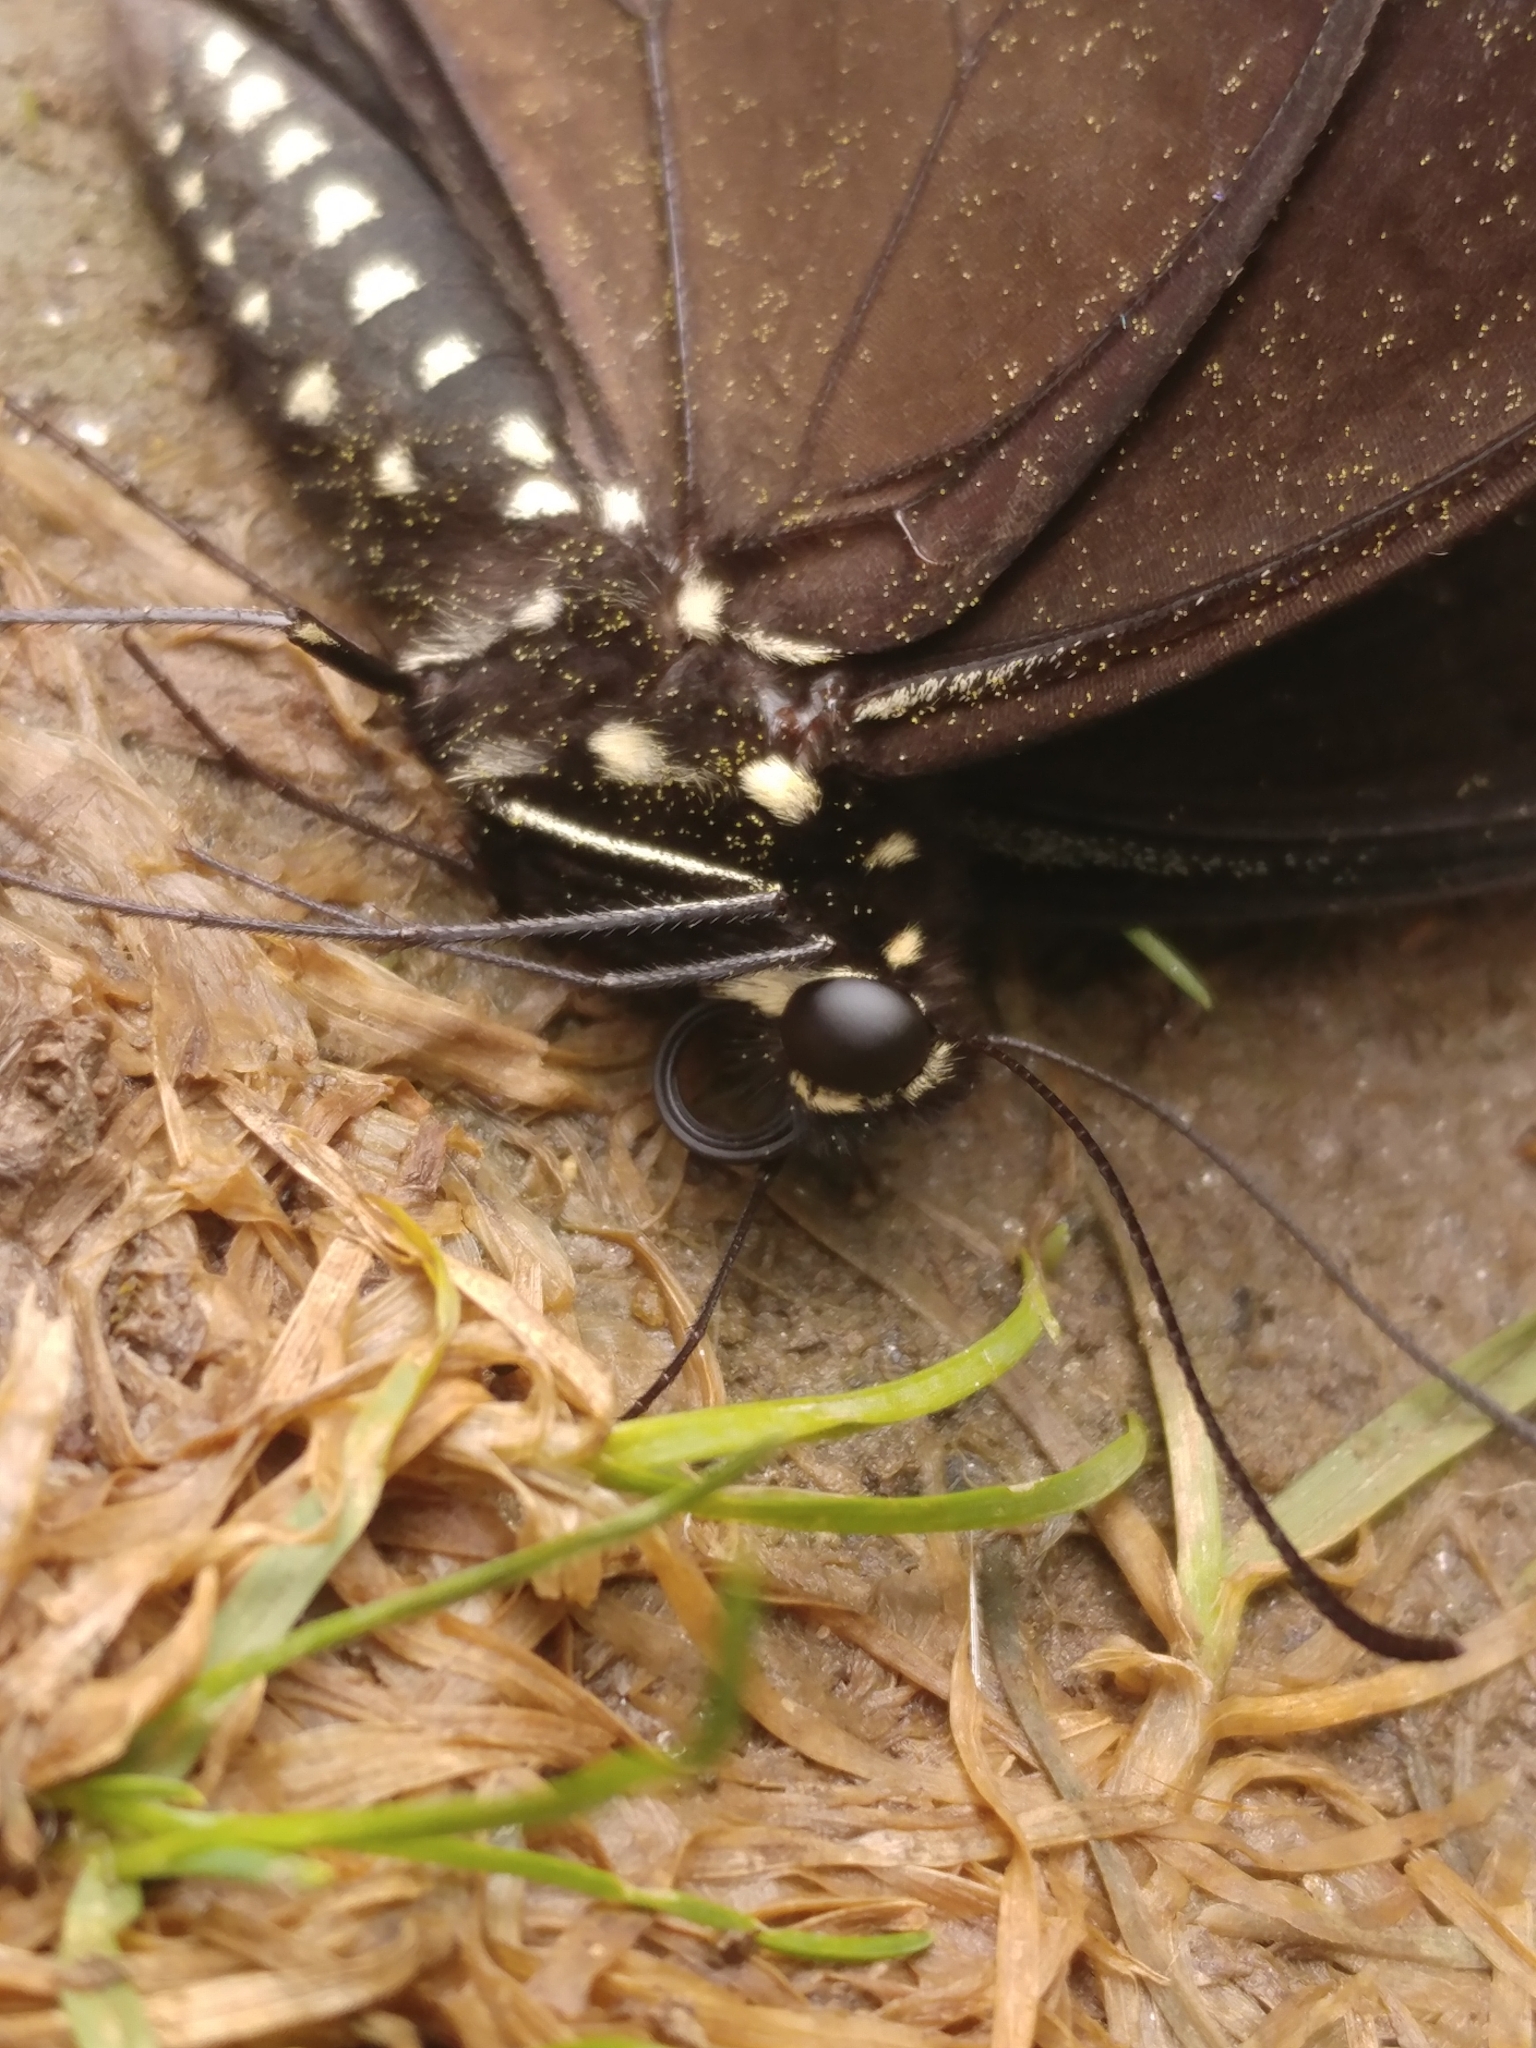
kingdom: Animalia
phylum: Arthropoda
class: Insecta
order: Lepidoptera
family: Papilionidae
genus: Papilio
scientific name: Papilio troilus
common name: Spicebush swallowtail
